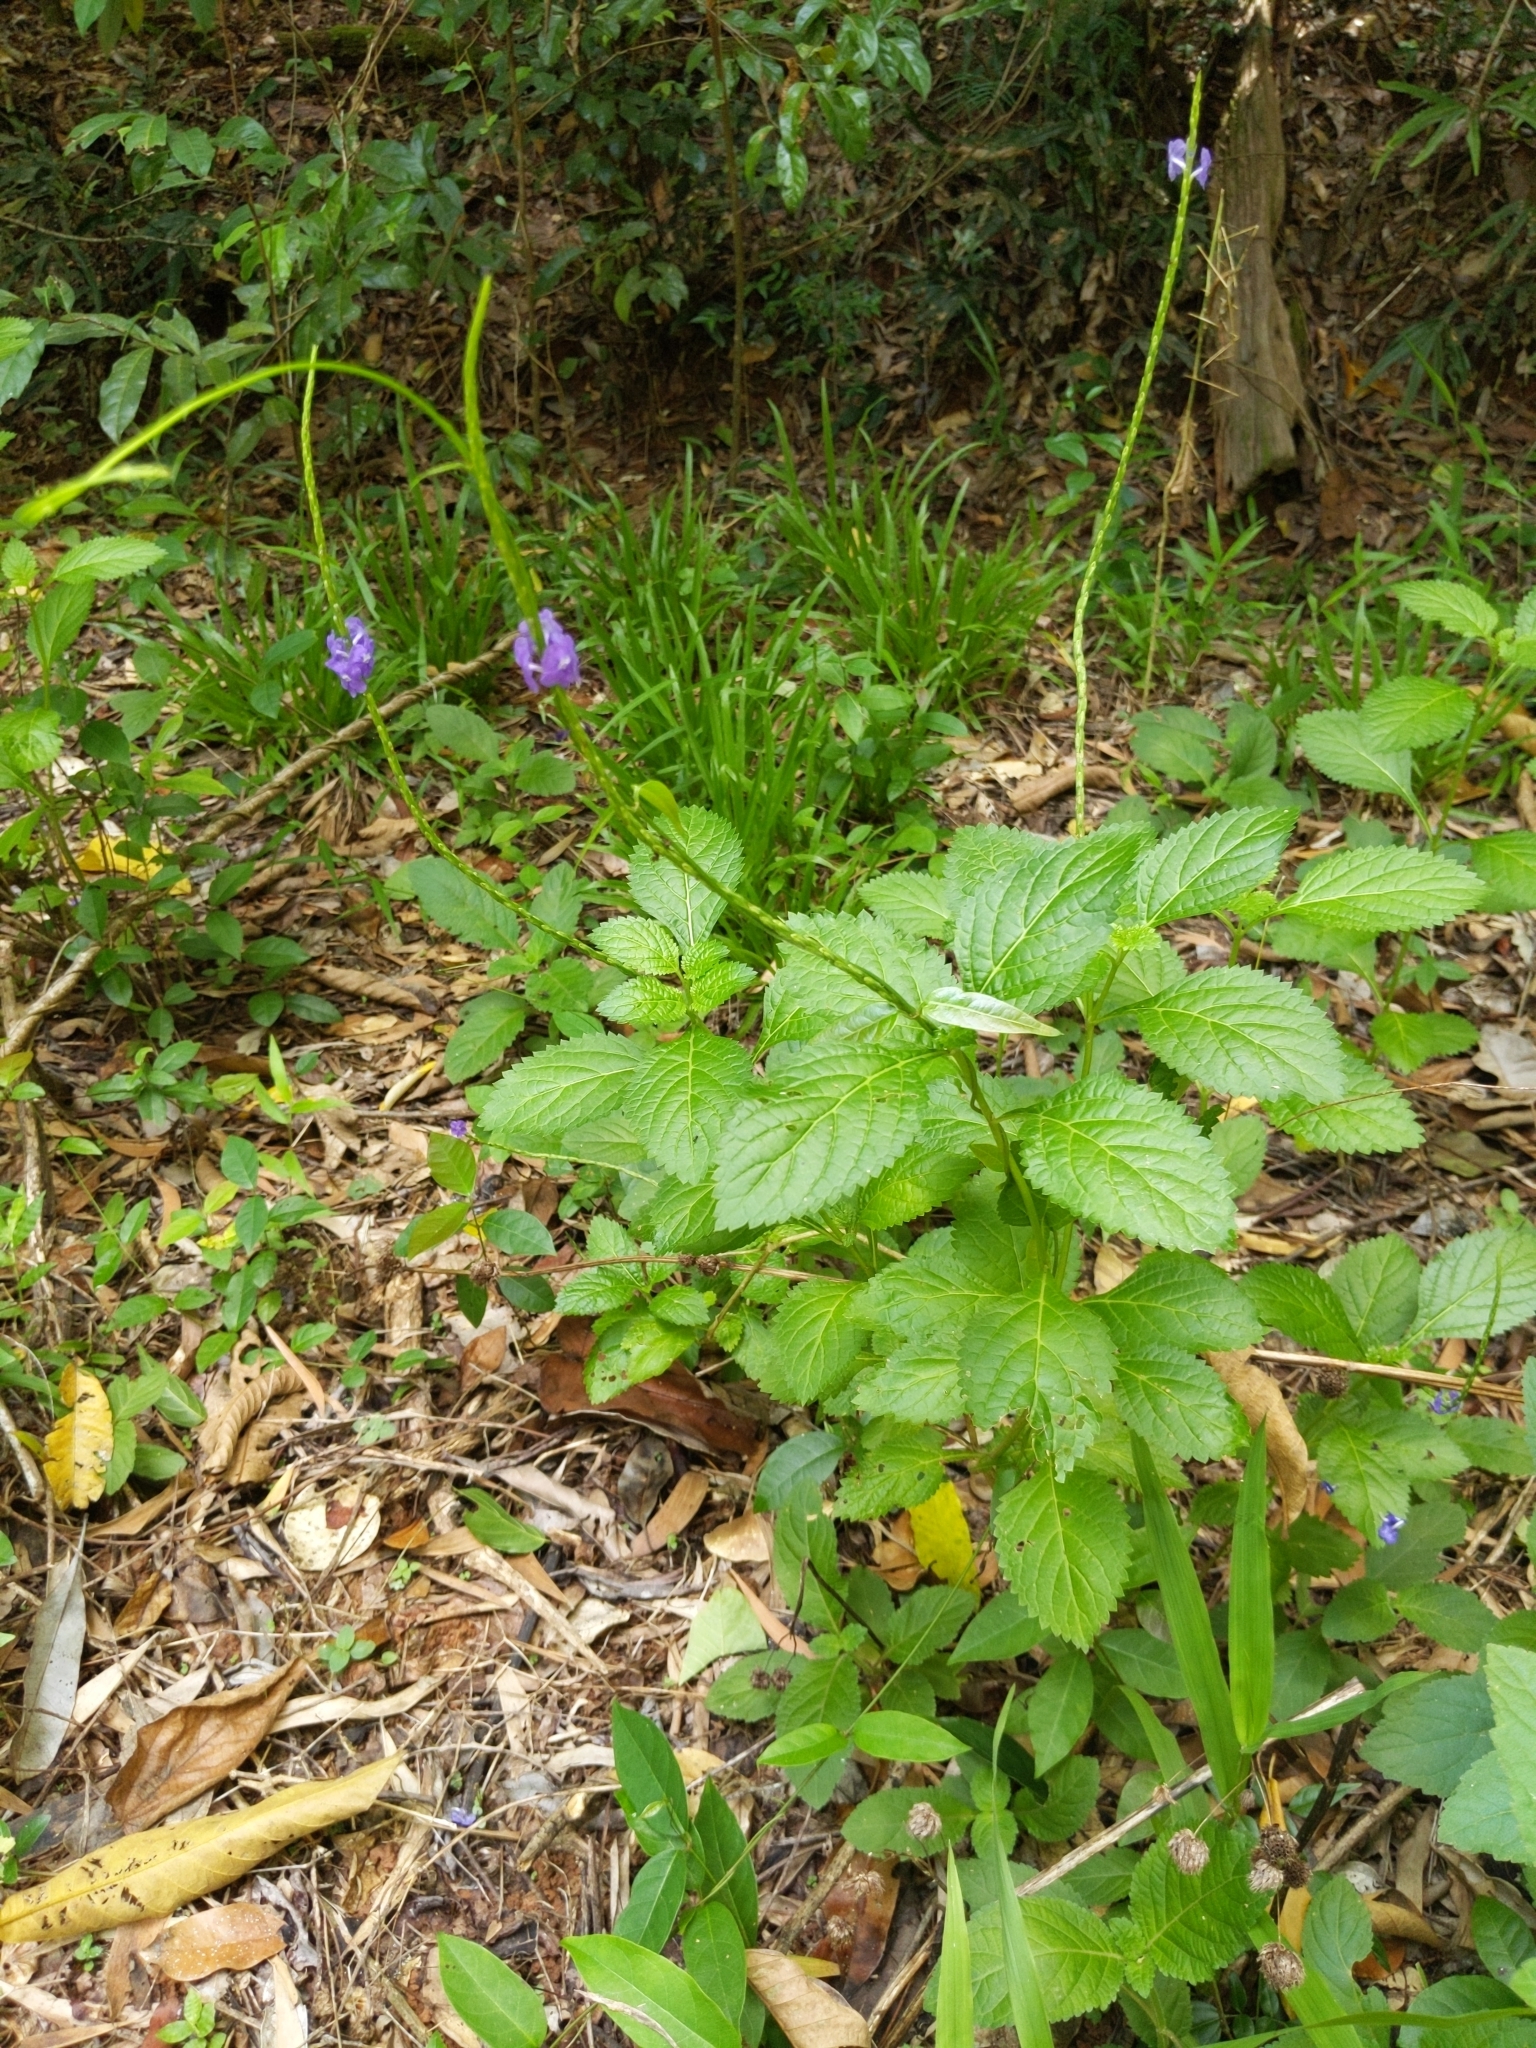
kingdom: Plantae
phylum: Tracheophyta
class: Magnoliopsida
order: Lamiales
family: Verbenaceae
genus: Stachytarpheta
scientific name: Stachytarpheta cayennensis
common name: Cayenne porterweed
